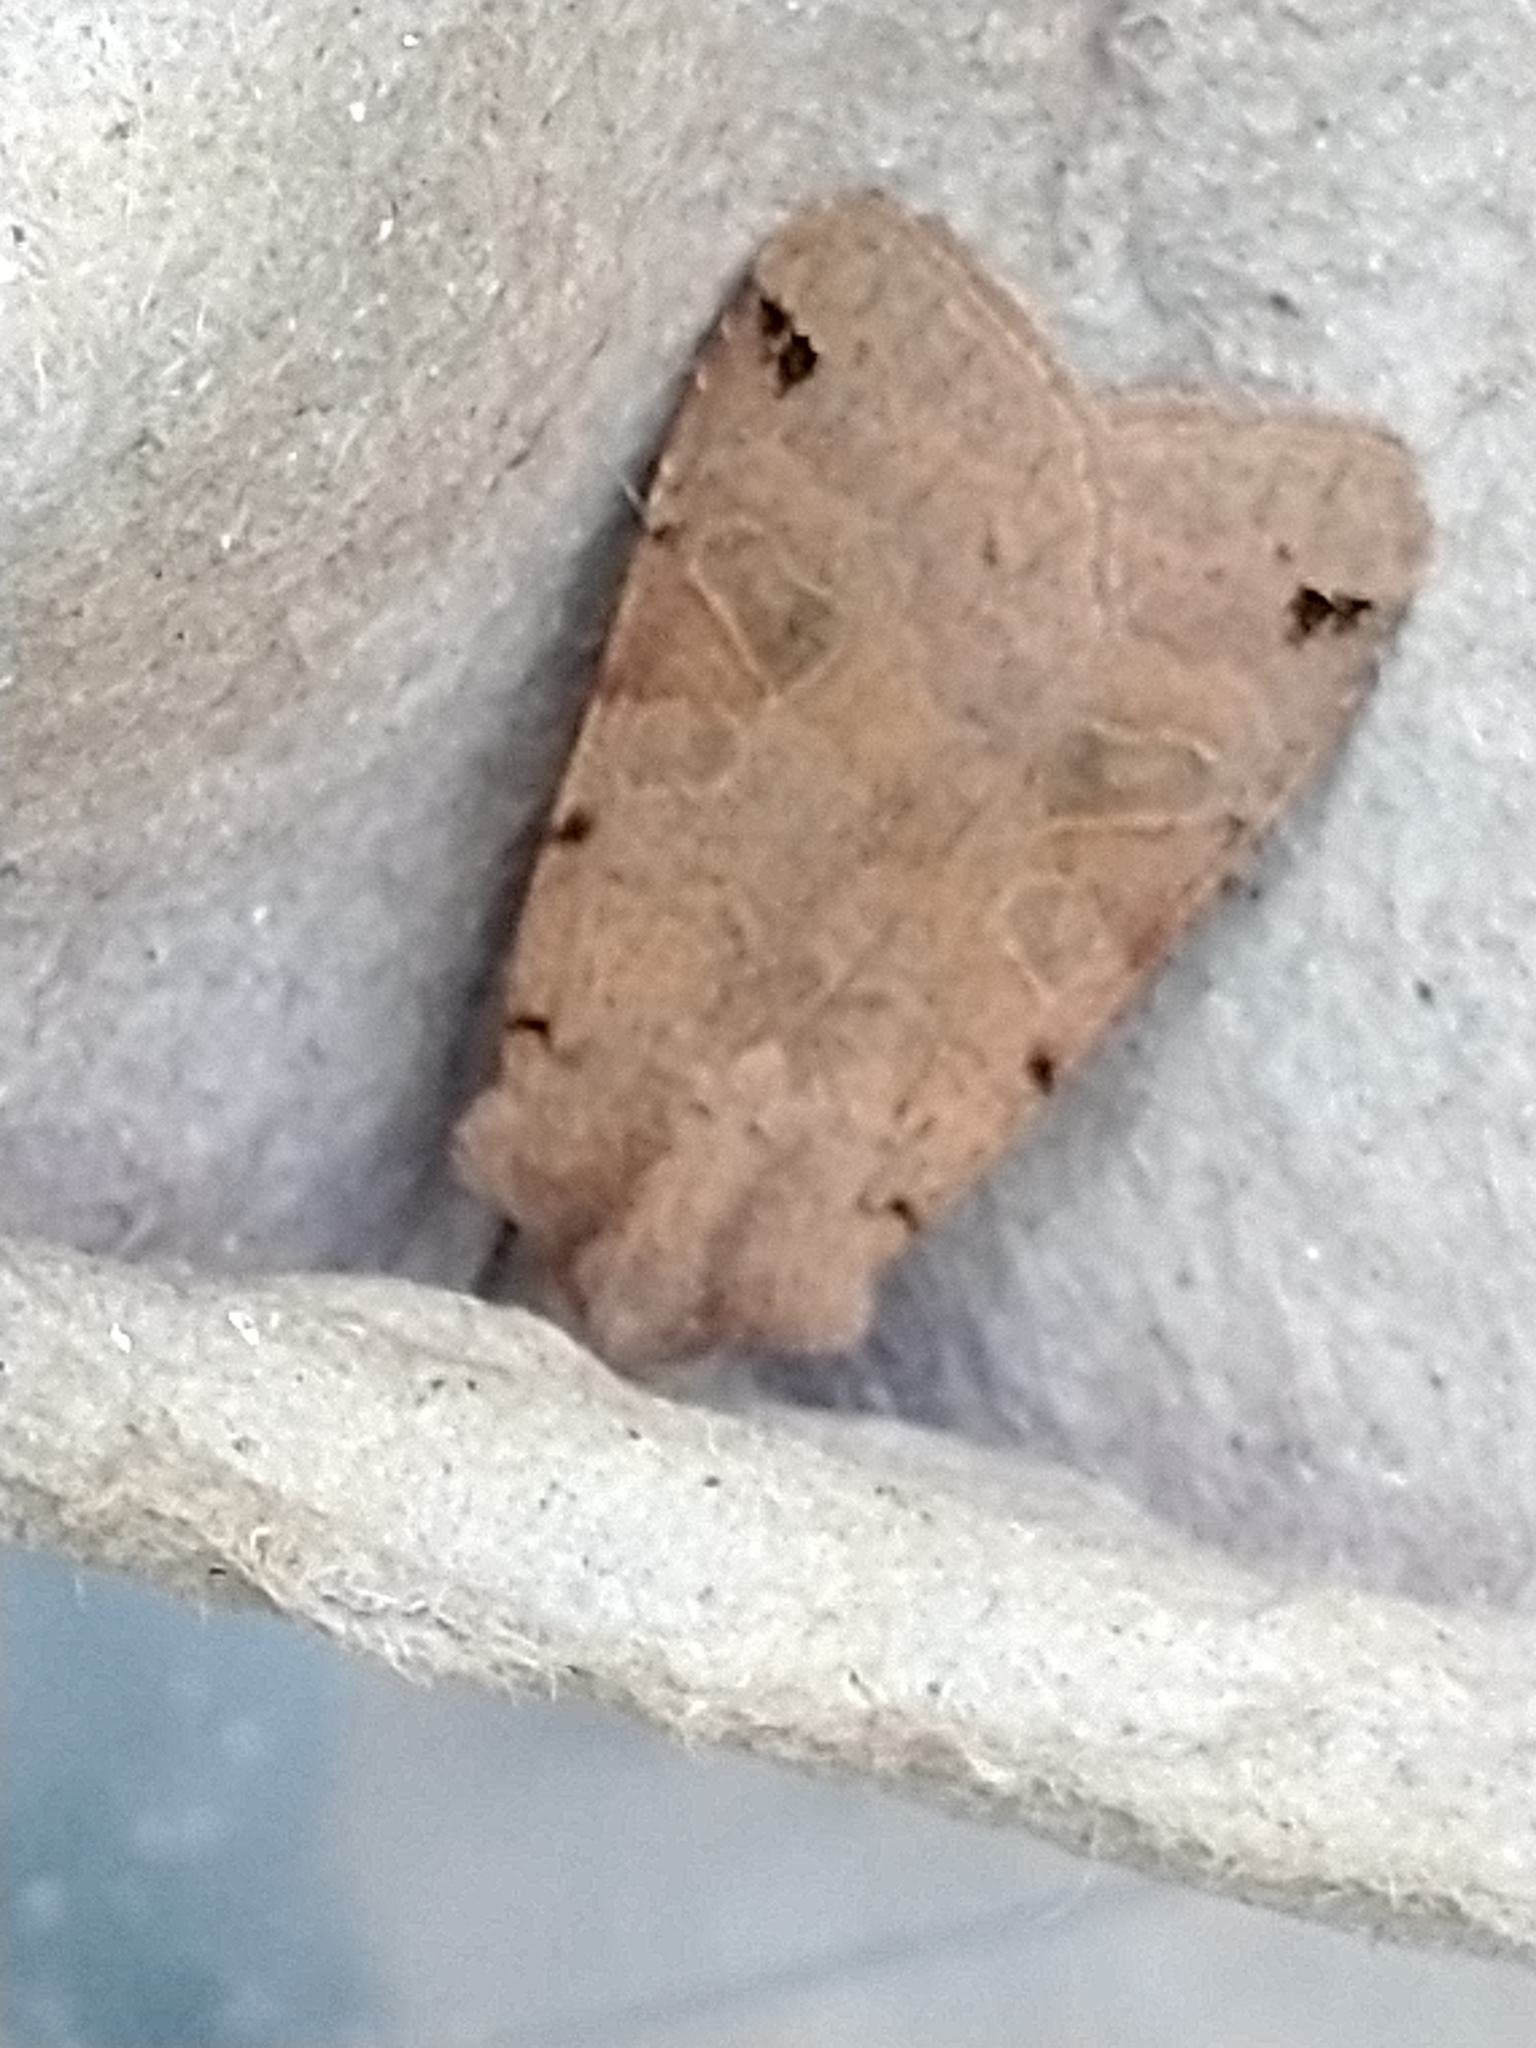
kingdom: Animalia
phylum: Arthropoda
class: Insecta
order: Lepidoptera
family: Noctuidae
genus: Agrochola
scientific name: Agrochola litura
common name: Brown-spot pinion
